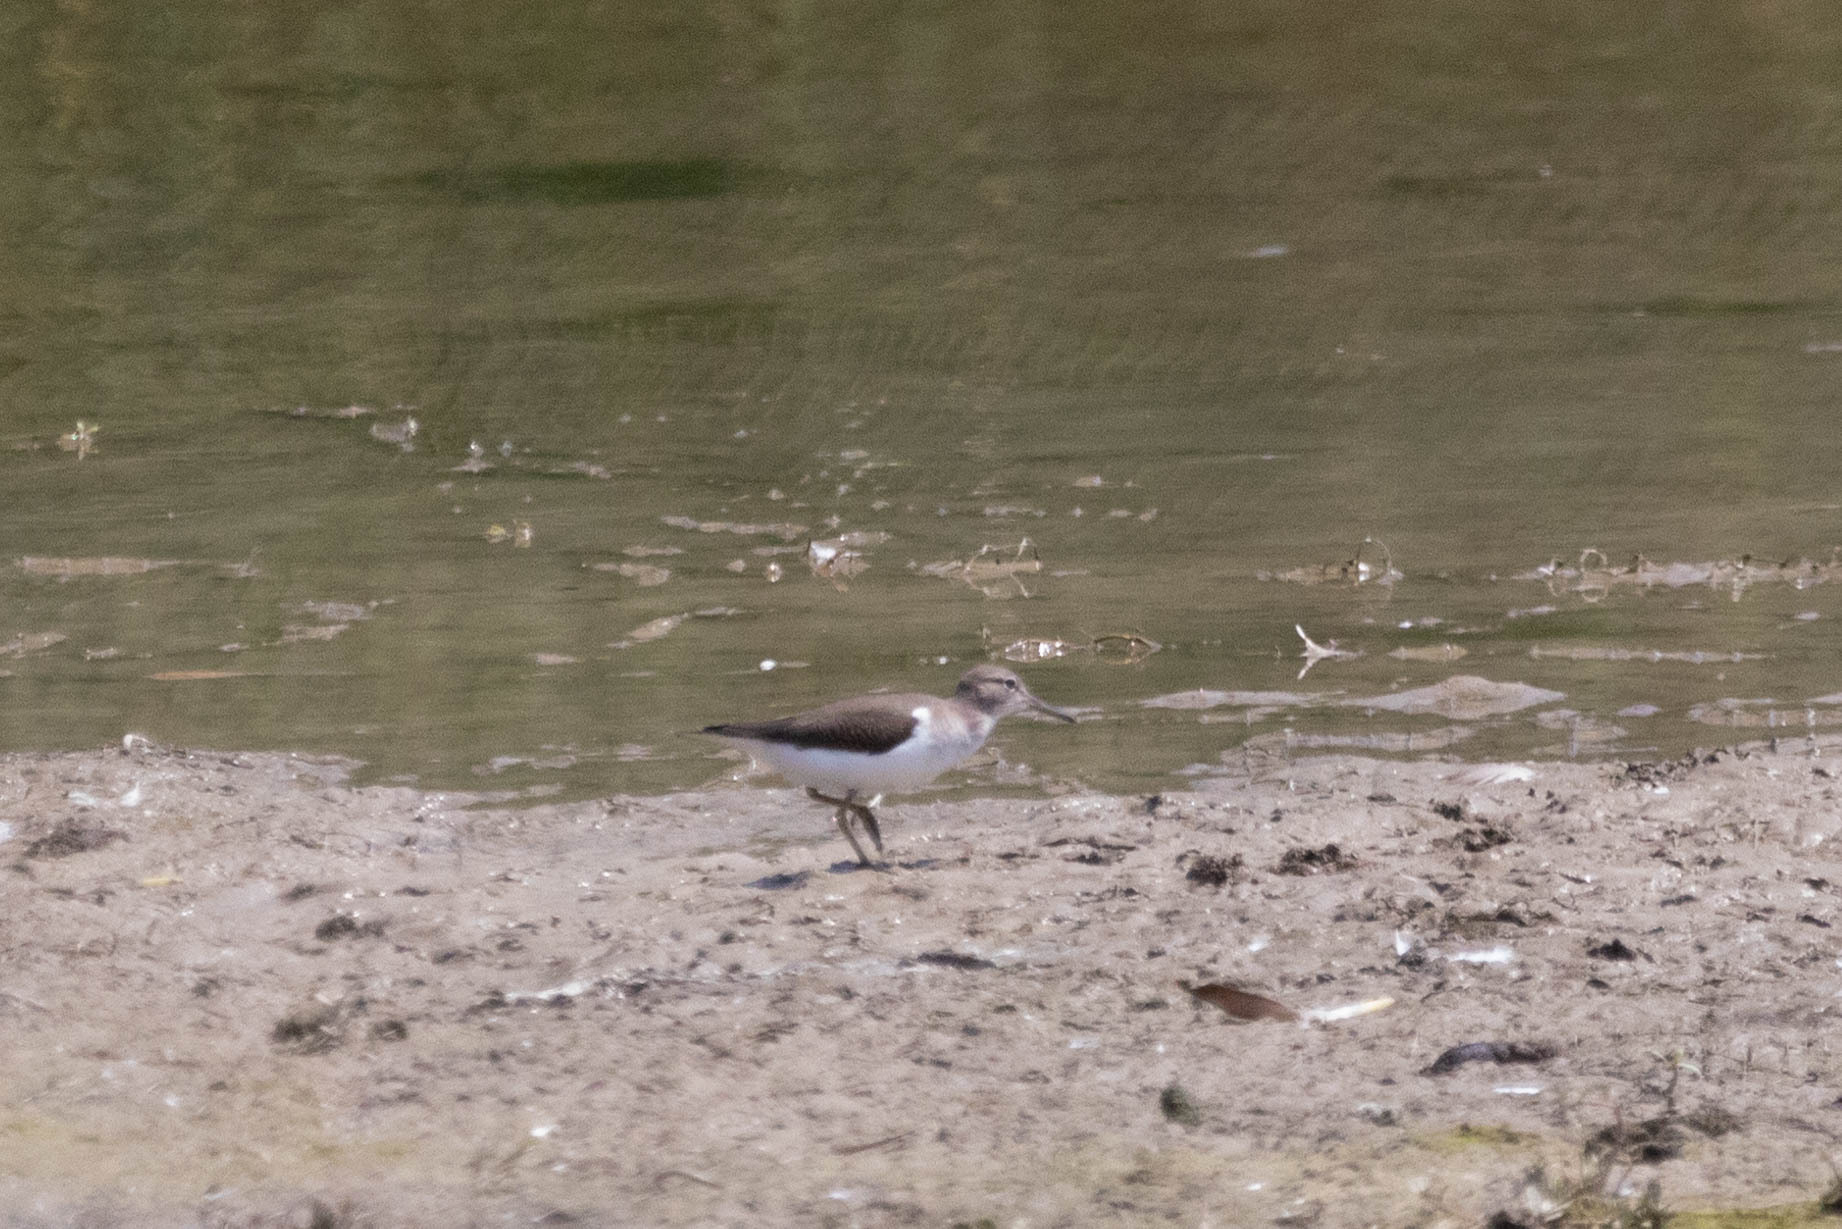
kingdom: Animalia
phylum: Chordata
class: Aves
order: Charadriiformes
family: Scolopacidae
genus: Actitis
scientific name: Actitis macularius
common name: Spotted sandpiper
